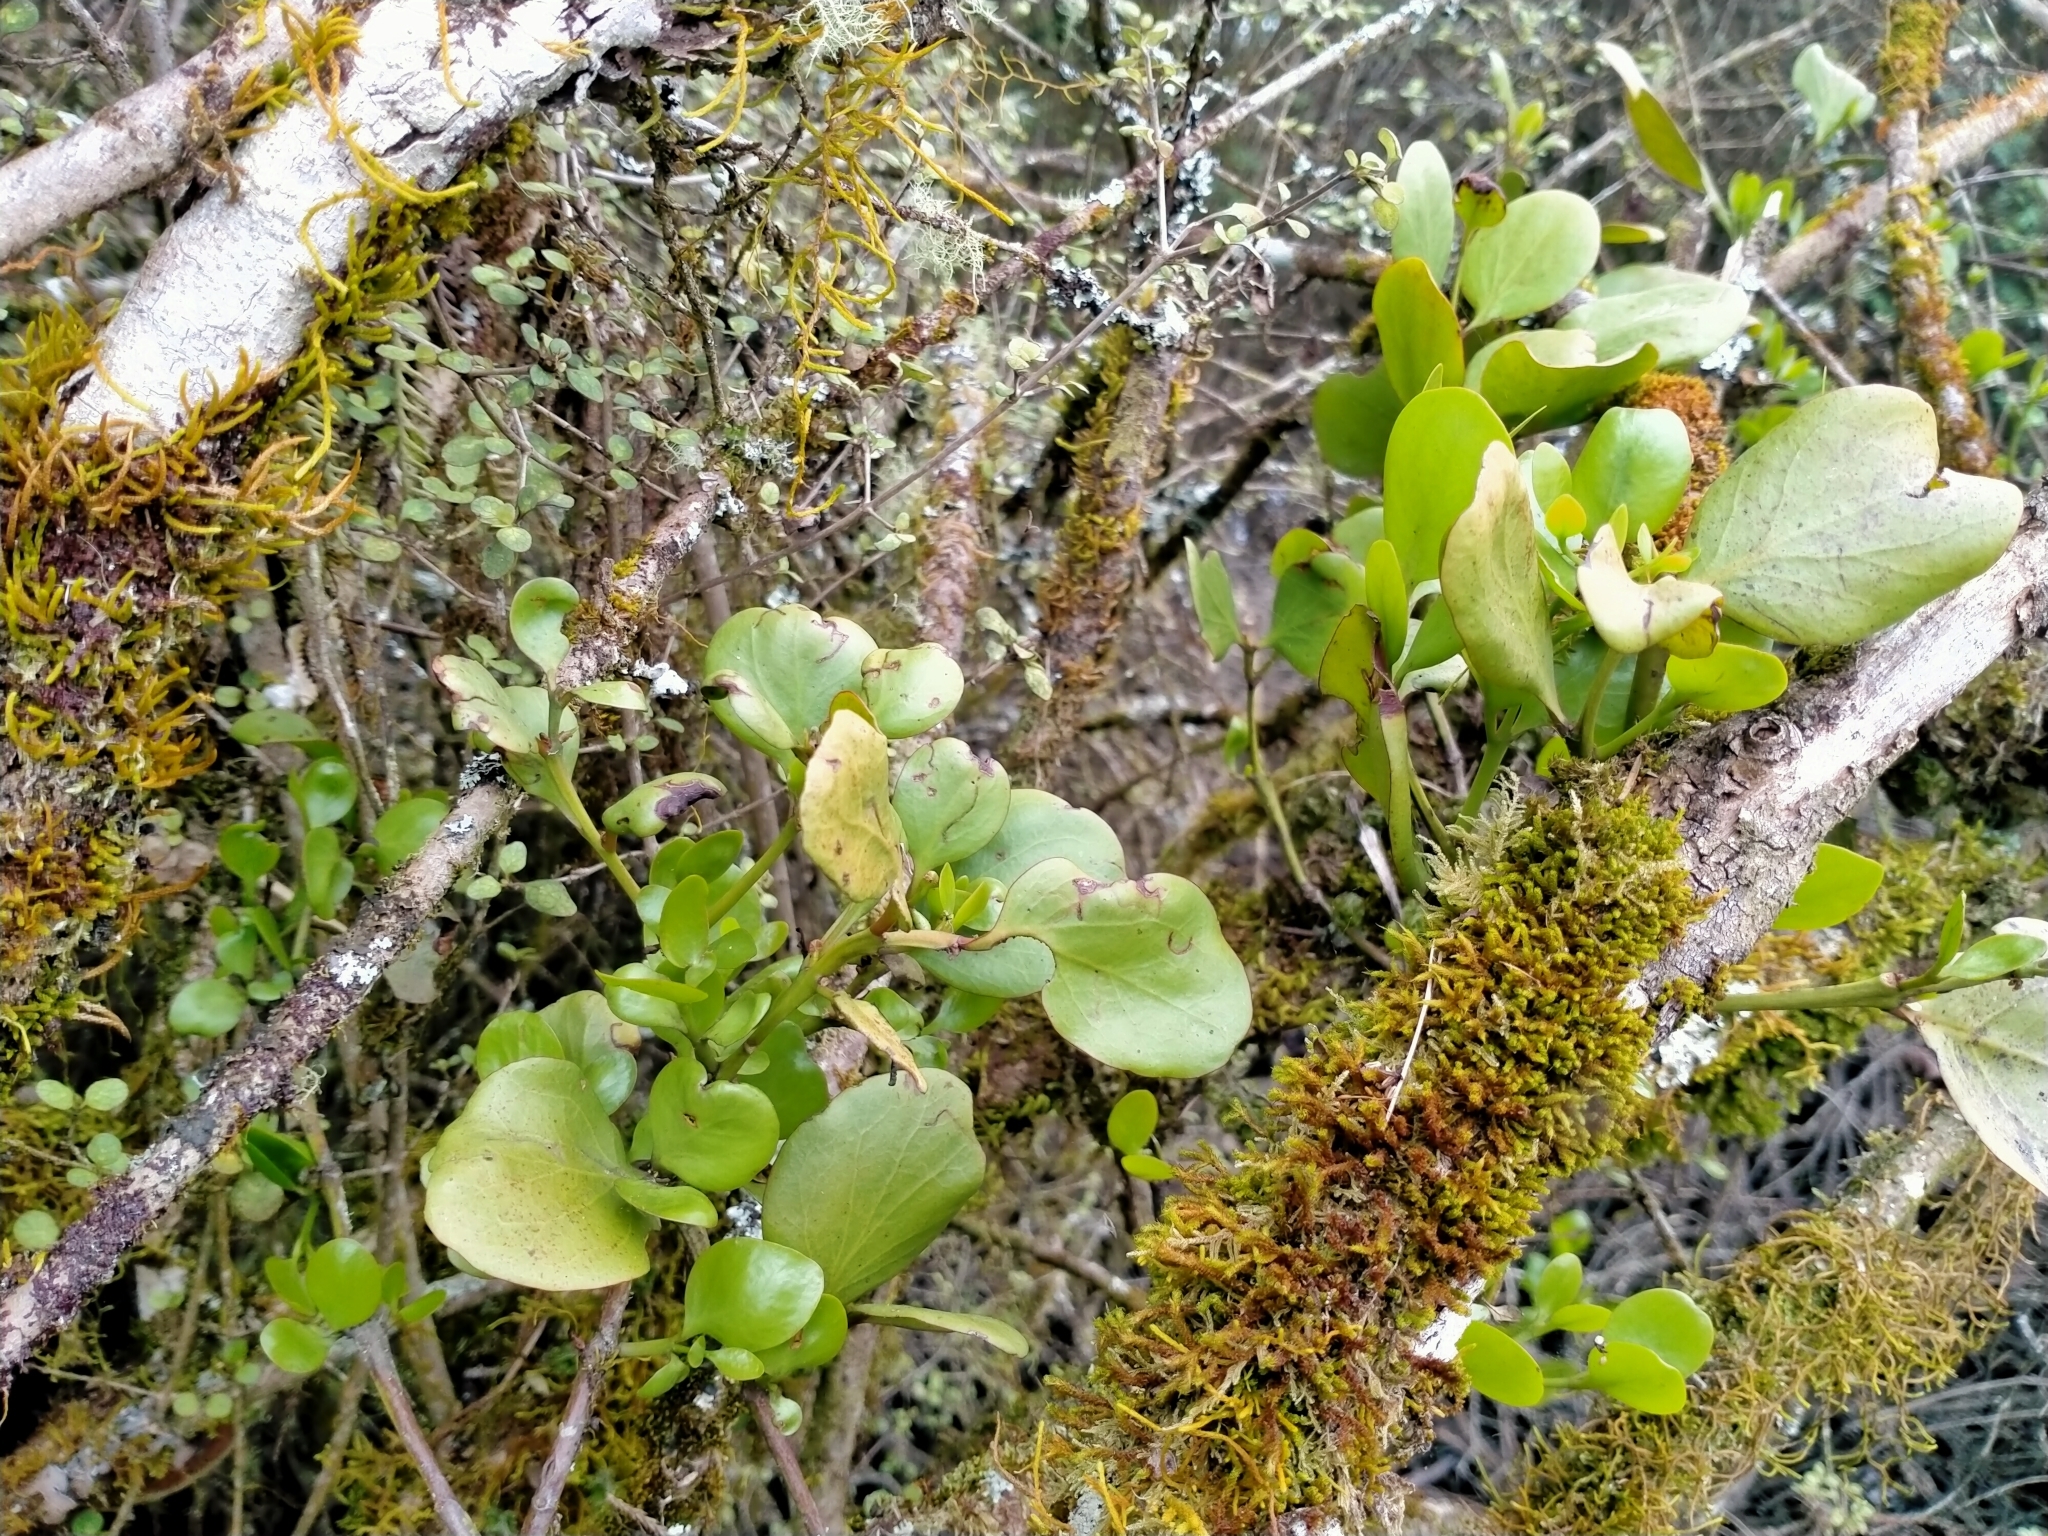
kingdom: Plantae
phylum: Tracheophyta
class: Magnoliopsida
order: Santalales
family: Loranthaceae
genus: Ileostylus
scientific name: Ileostylus micranthus
